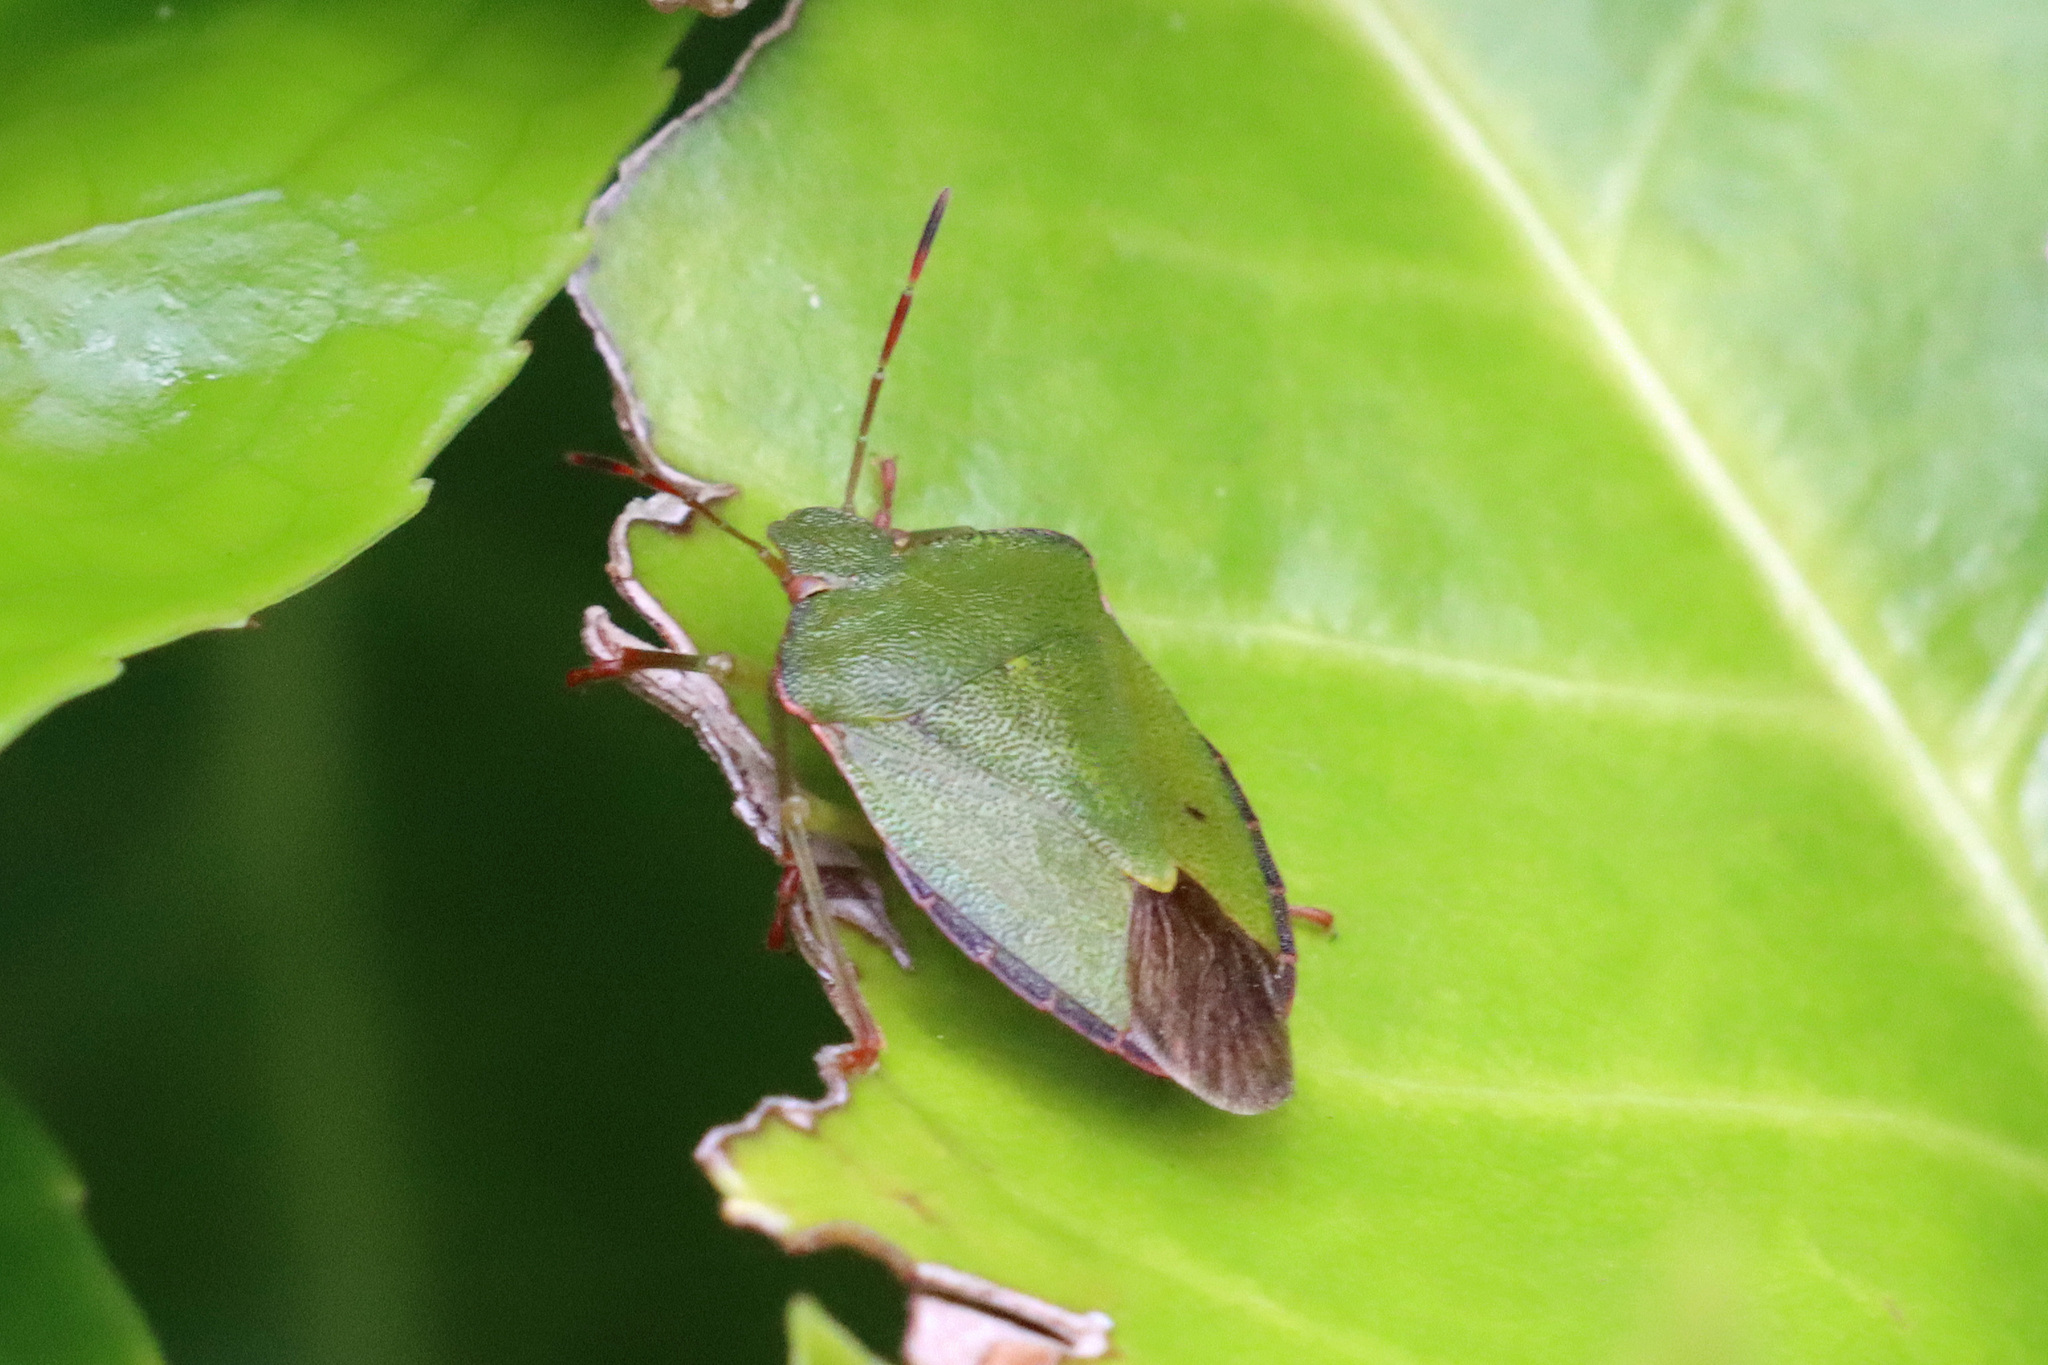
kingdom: Animalia
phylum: Arthropoda
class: Insecta
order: Hemiptera
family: Pentatomidae
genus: Palomena
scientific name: Palomena prasina
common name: Green shieldbug
